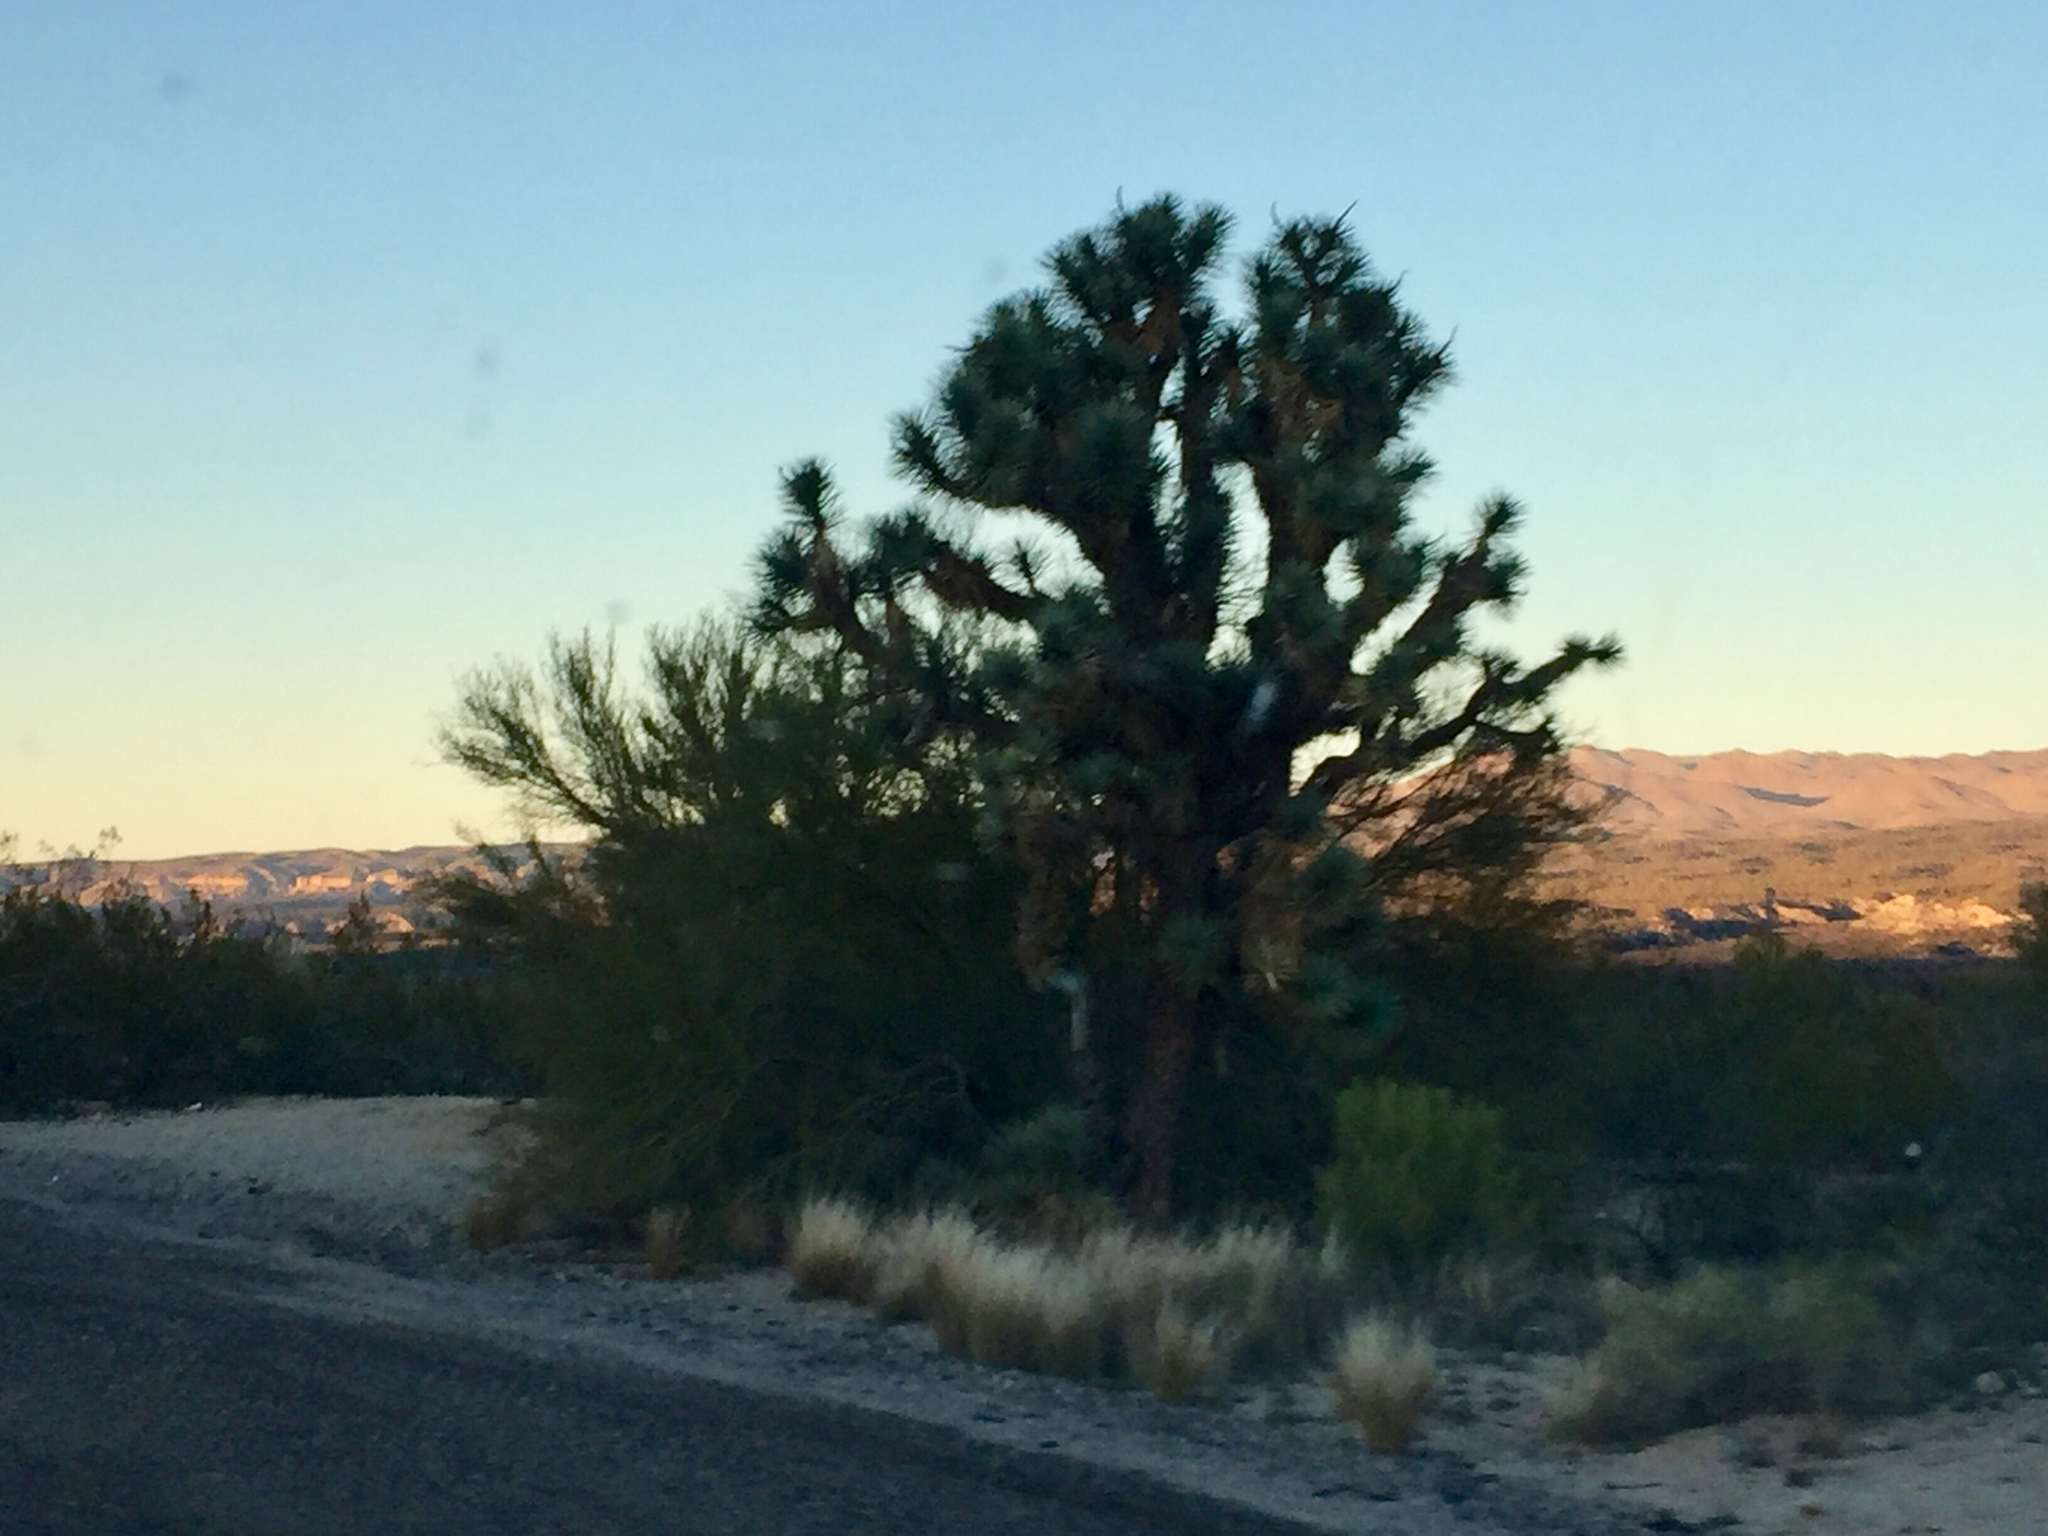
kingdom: Plantae
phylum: Tracheophyta
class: Liliopsida
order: Asparagales
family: Asparagaceae
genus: Yucca
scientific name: Yucca brevifolia
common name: Joshua tree
